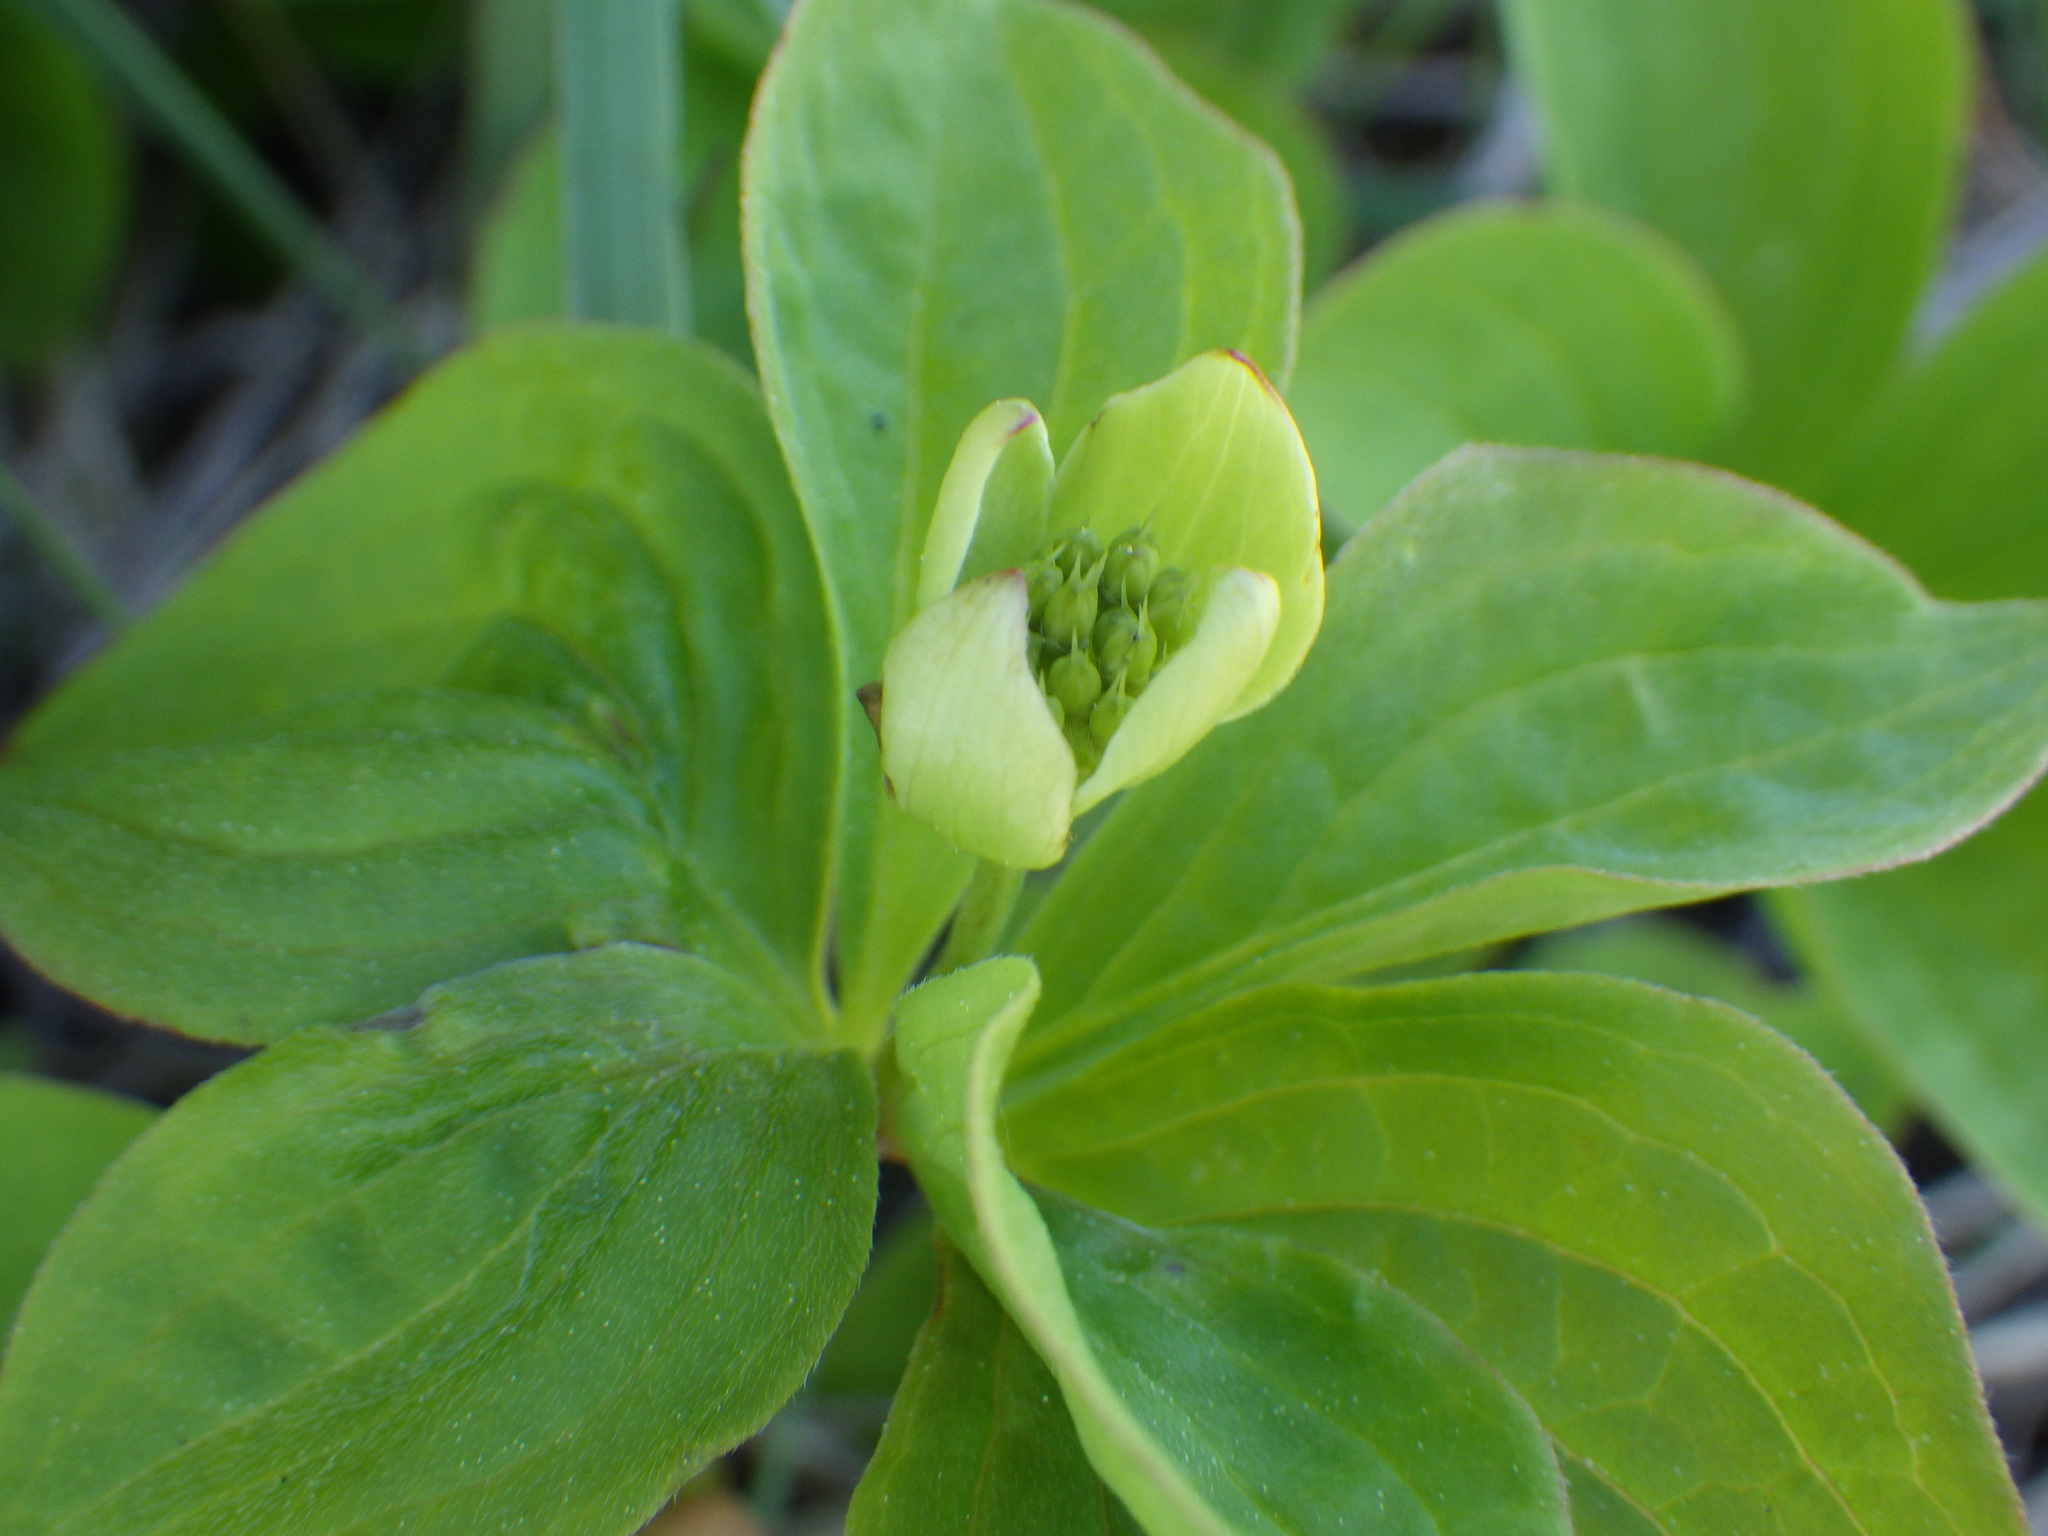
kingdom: Plantae
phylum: Tracheophyta
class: Magnoliopsida
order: Cornales
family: Cornaceae
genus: Cornus
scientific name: Cornus canadensis
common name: Creeping dogwood
